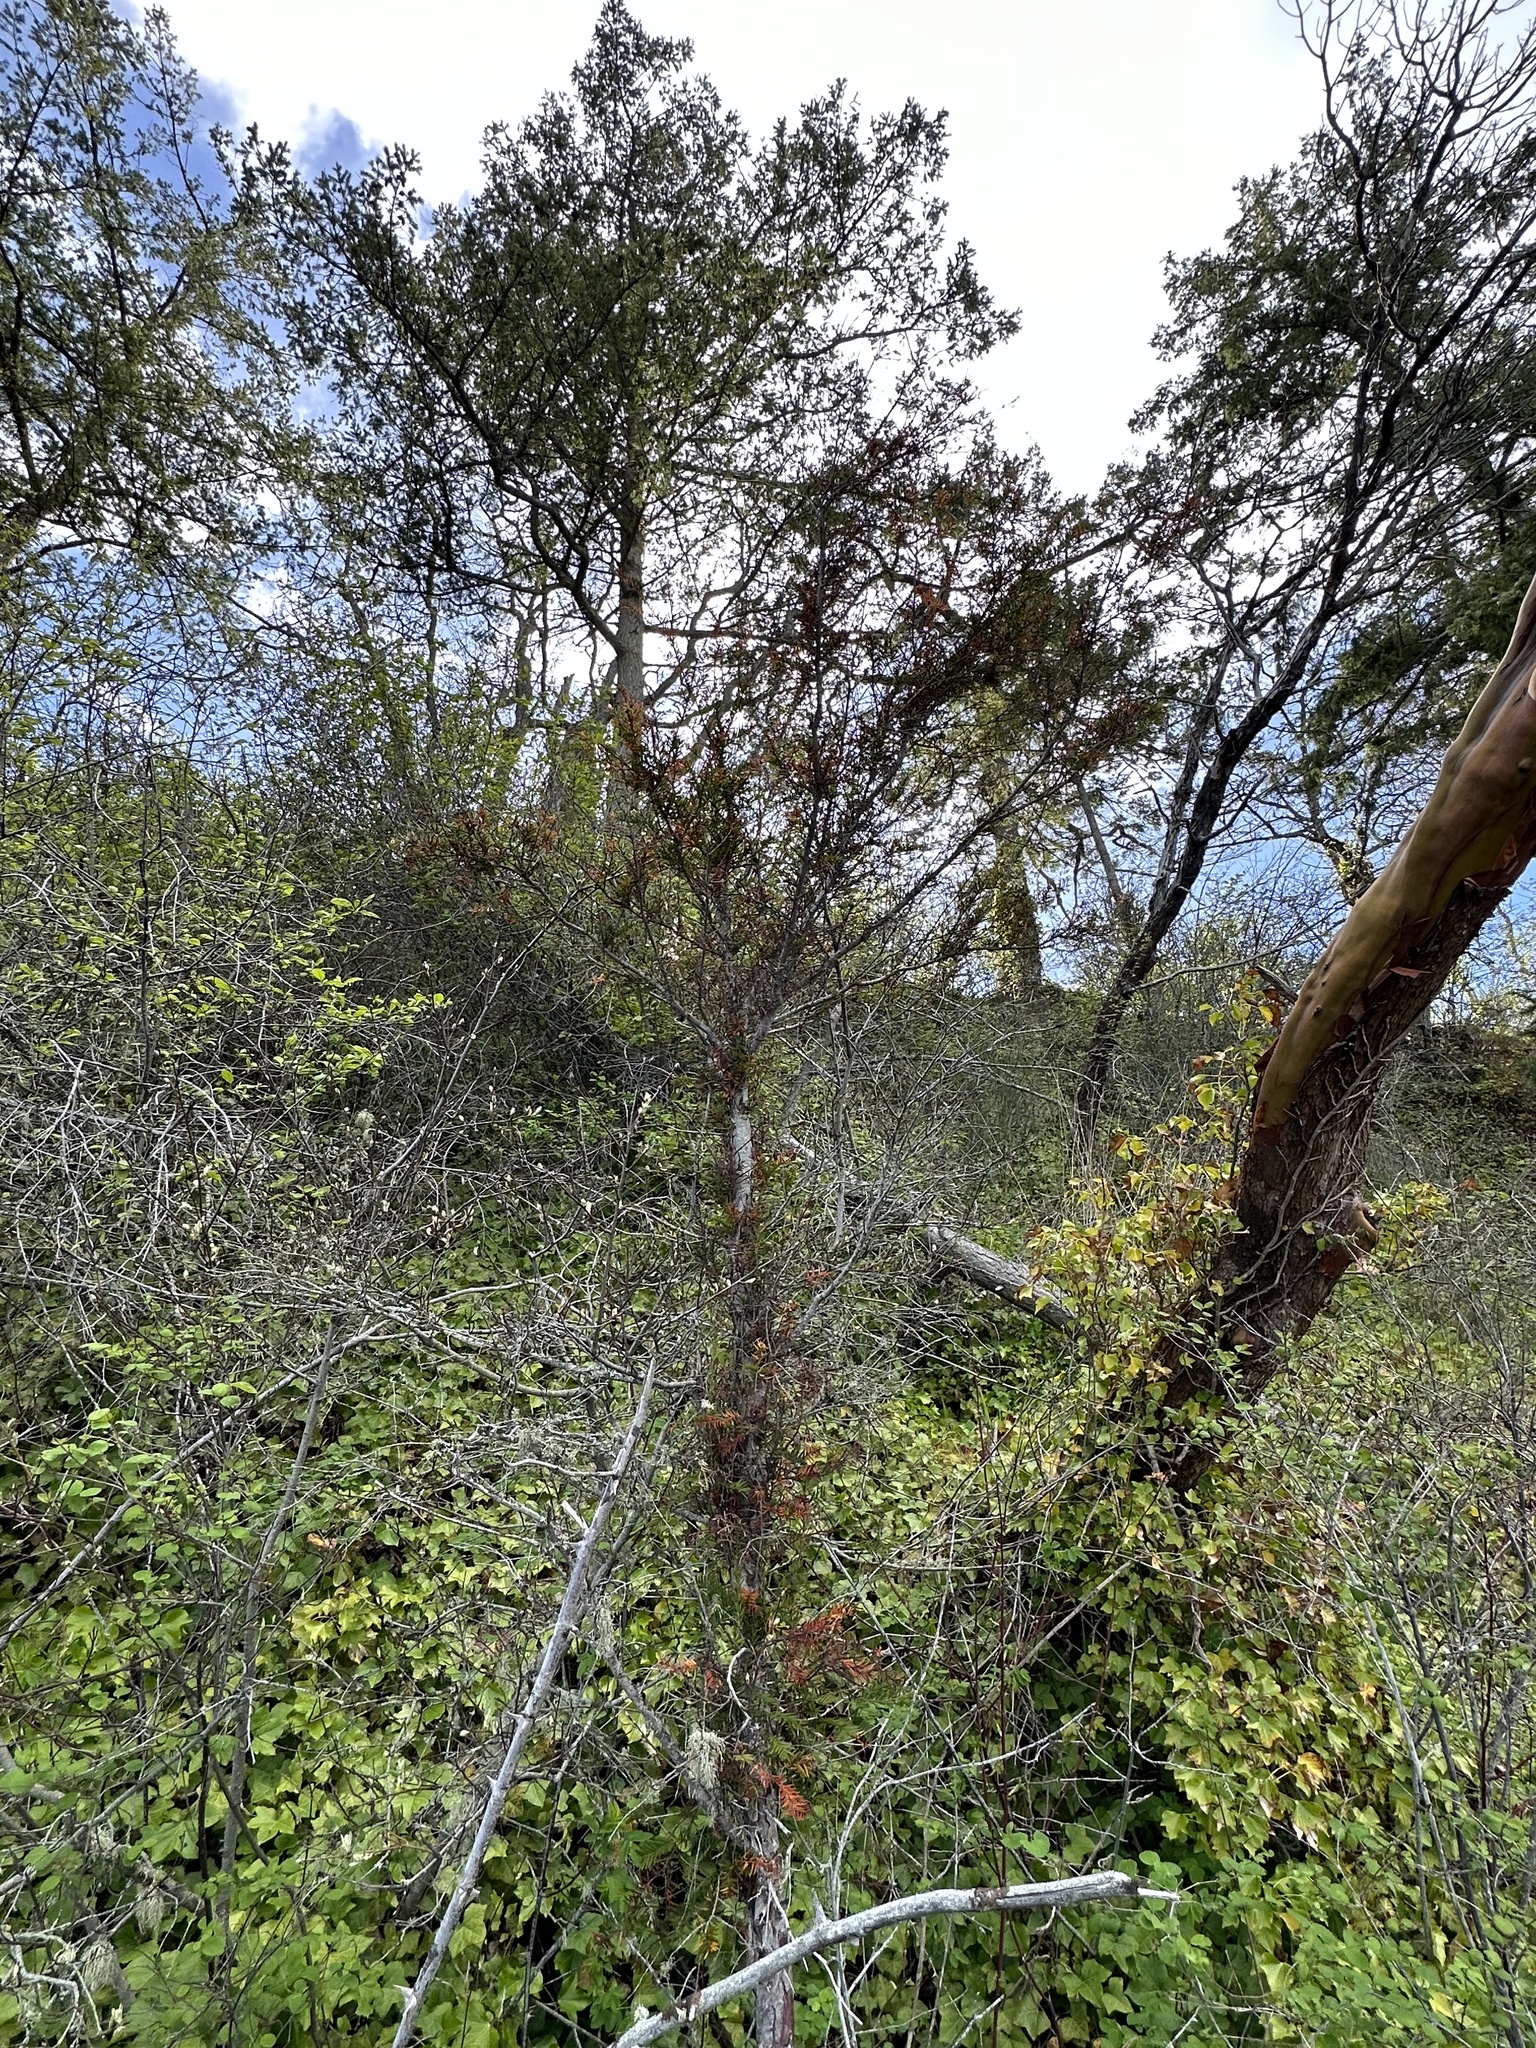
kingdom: Plantae
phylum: Tracheophyta
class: Pinopsida
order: Pinales
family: Taxaceae
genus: Taxus
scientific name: Taxus brevifolia
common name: Pacific yew
